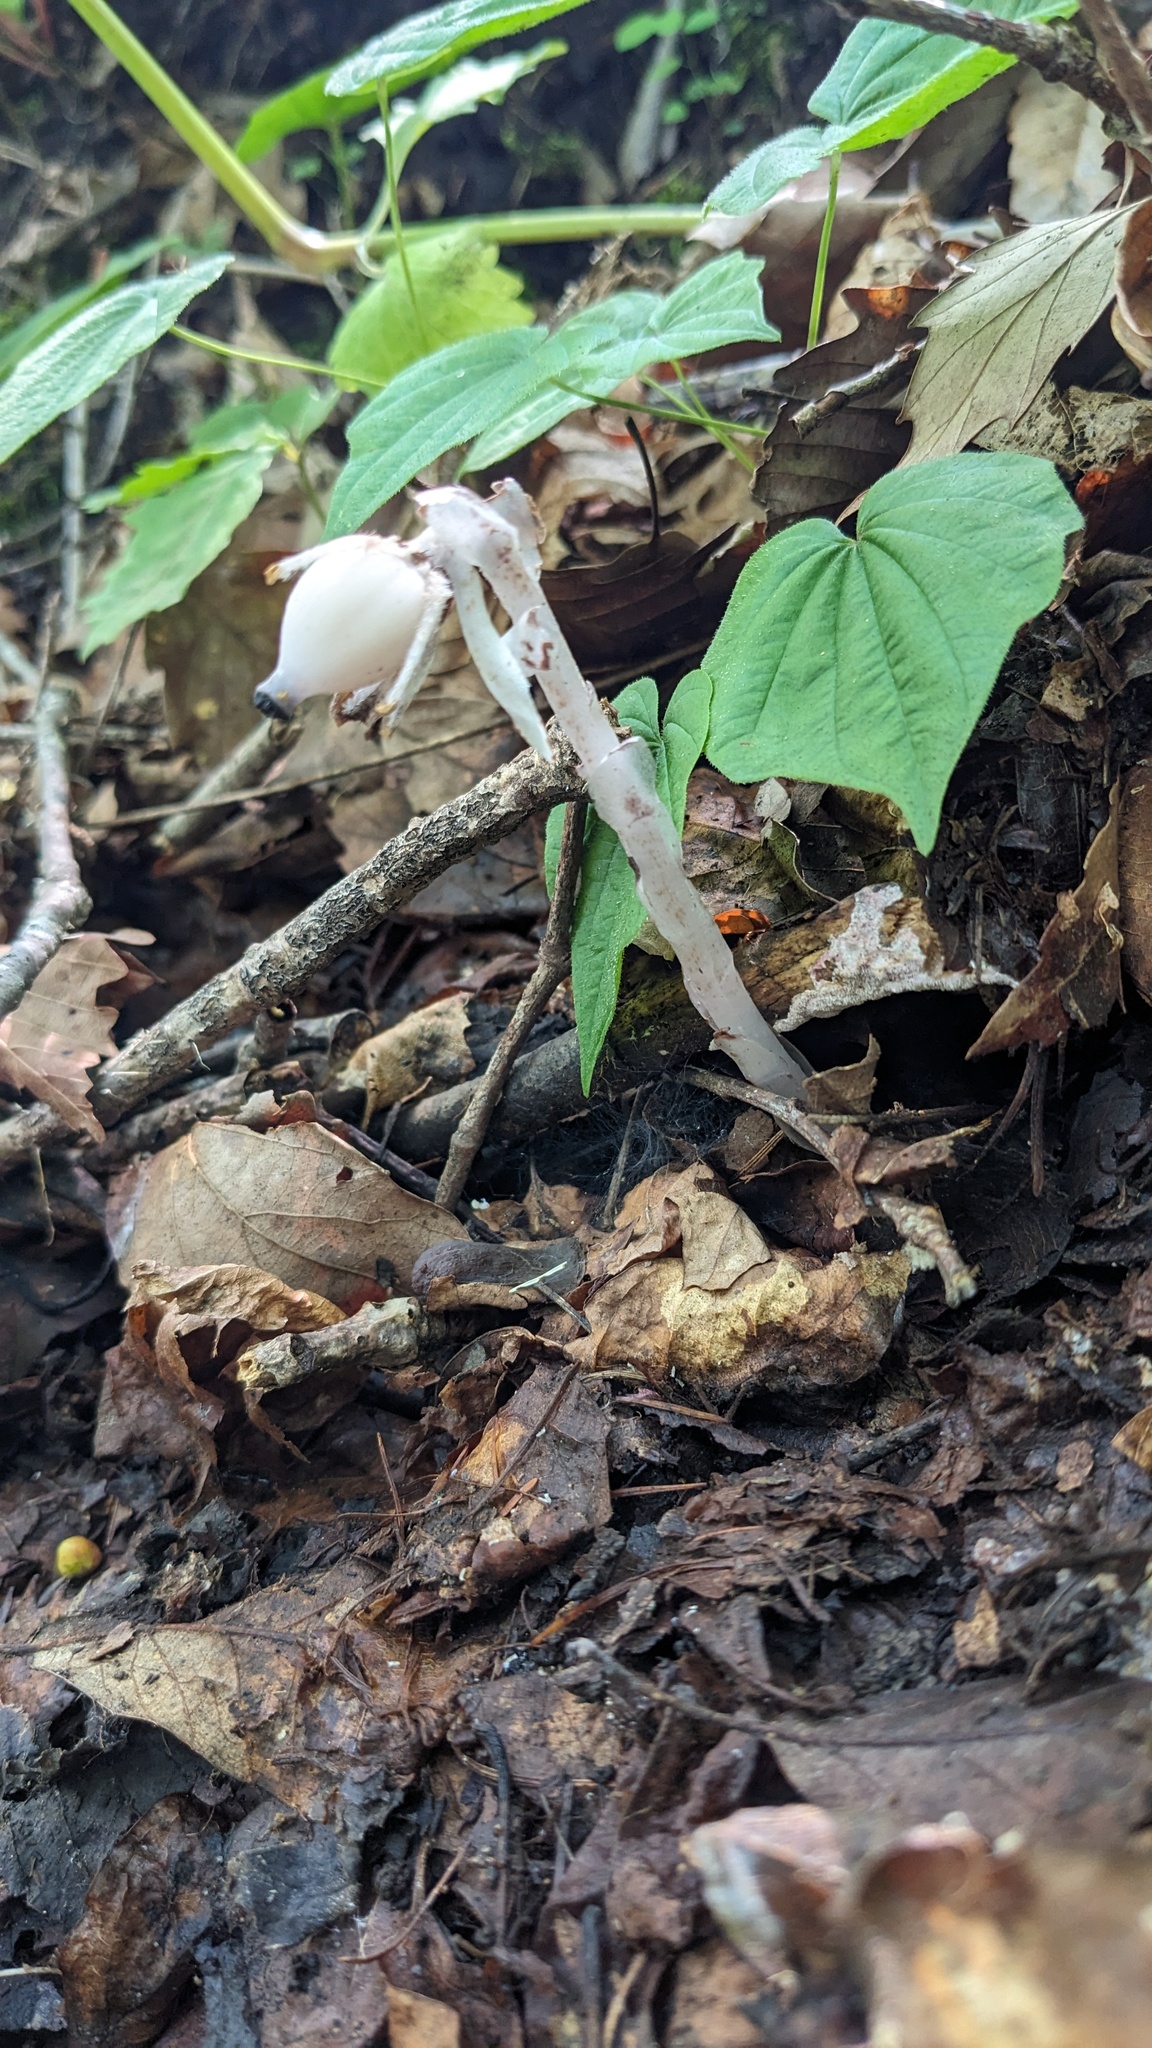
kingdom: Plantae
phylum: Tracheophyta
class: Magnoliopsida
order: Ericales
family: Ericaceae
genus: Monotropastrum
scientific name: Monotropastrum humile
